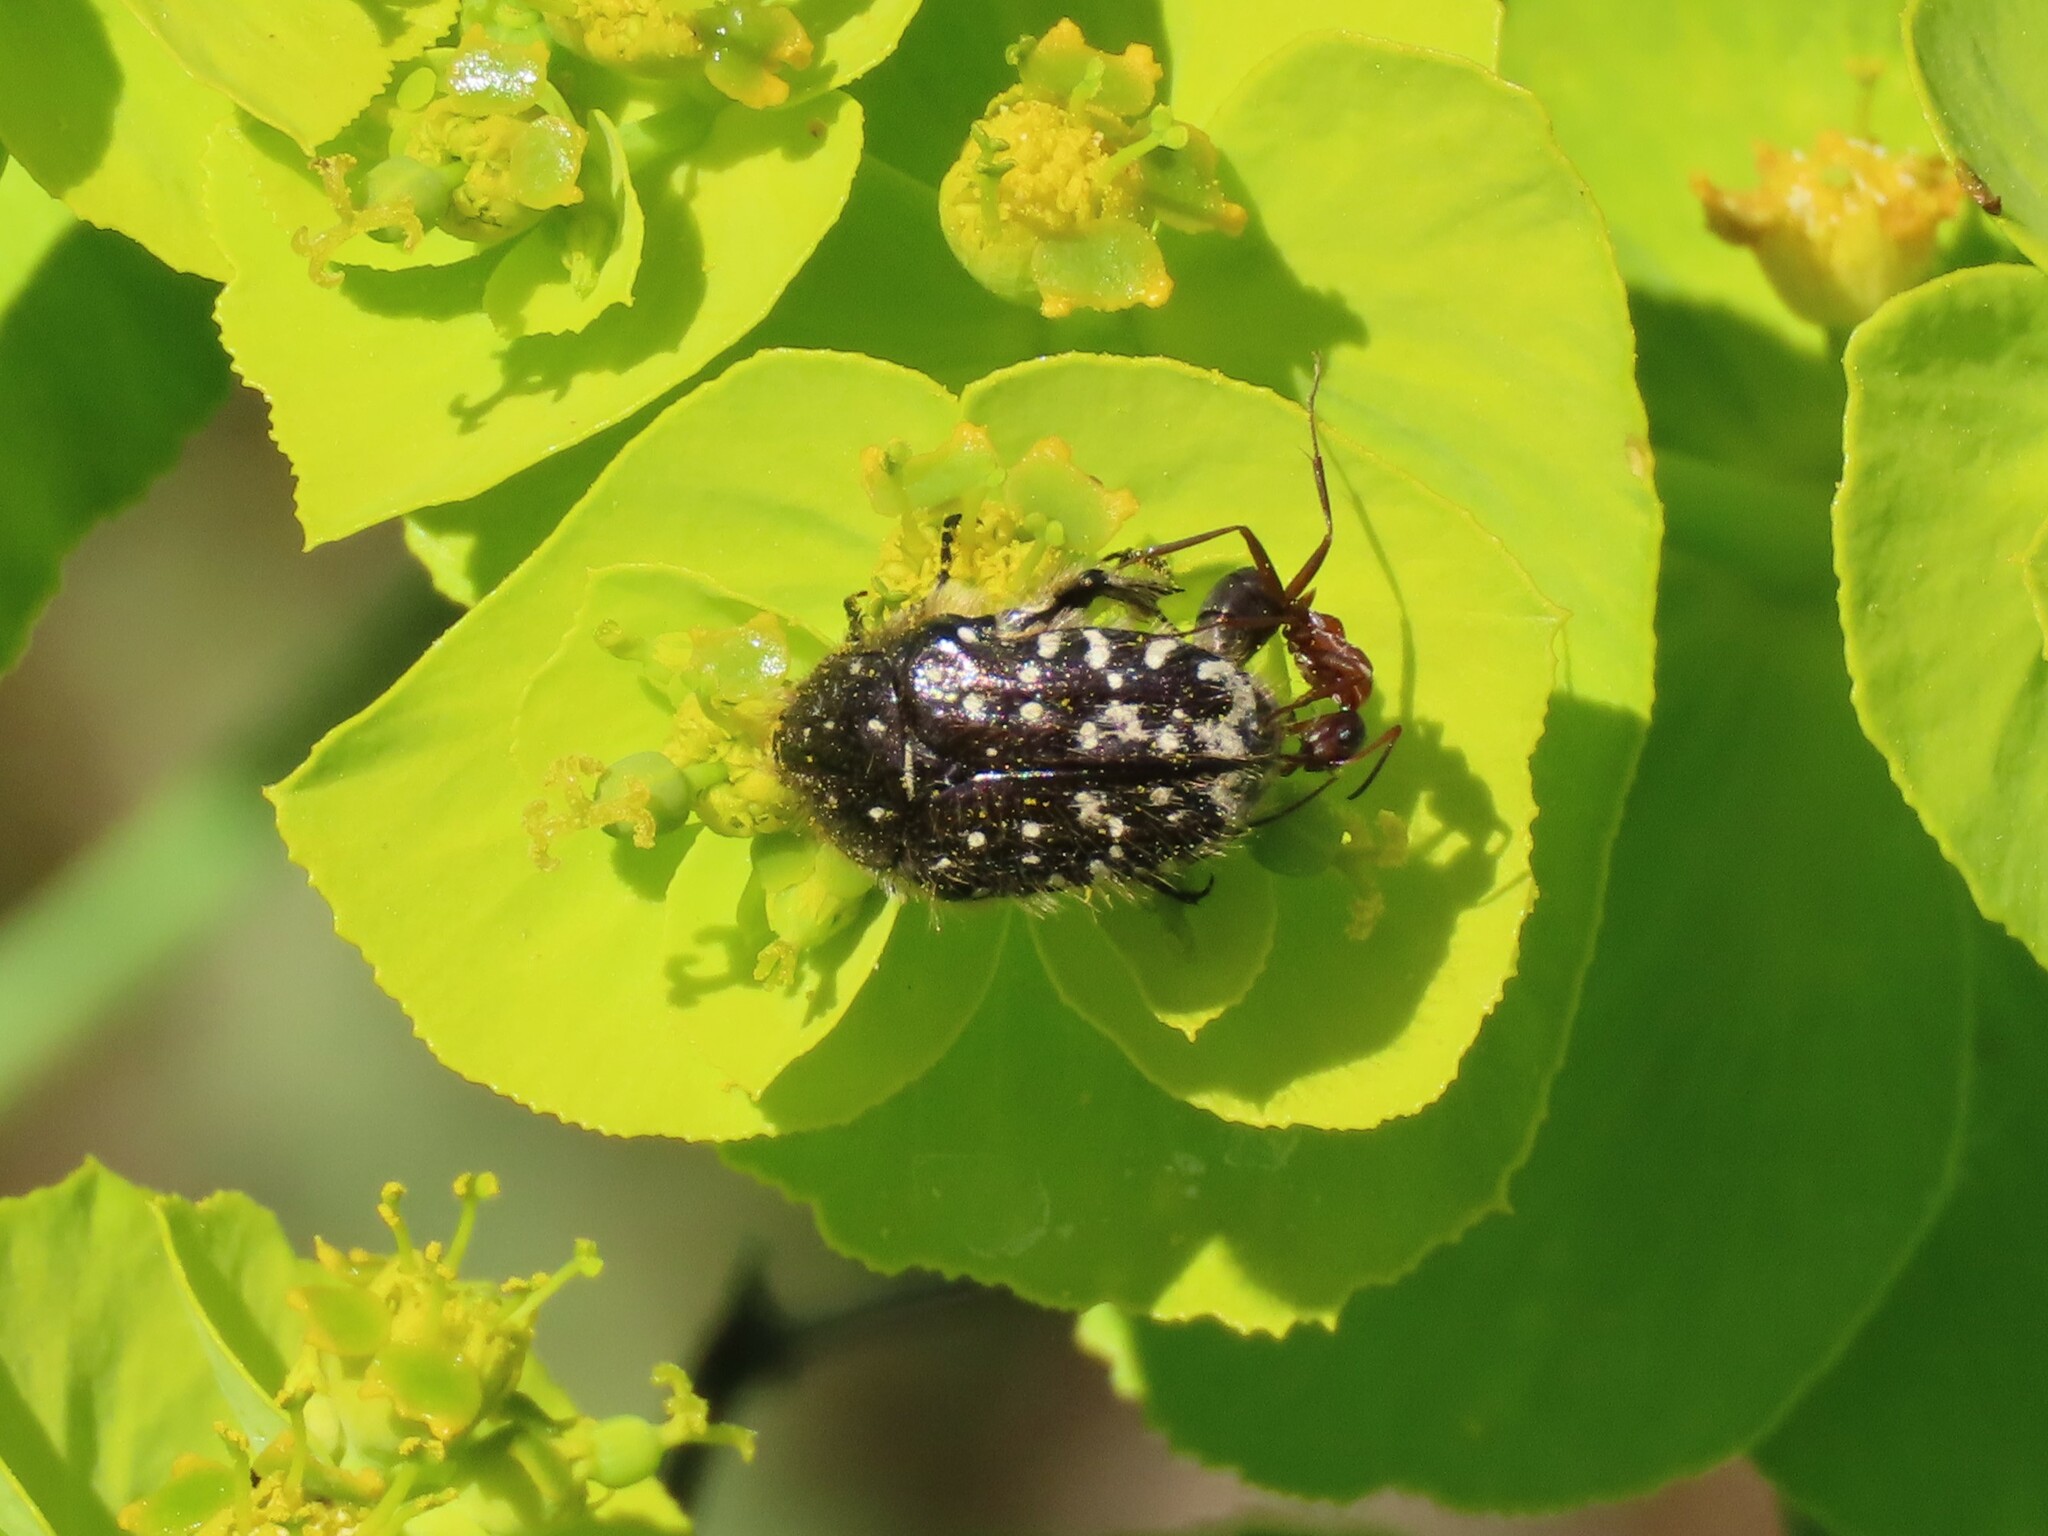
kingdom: Animalia
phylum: Arthropoda
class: Insecta
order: Coleoptera
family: Scarabaeidae
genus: Oxythyrea
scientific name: Oxythyrea funesta
